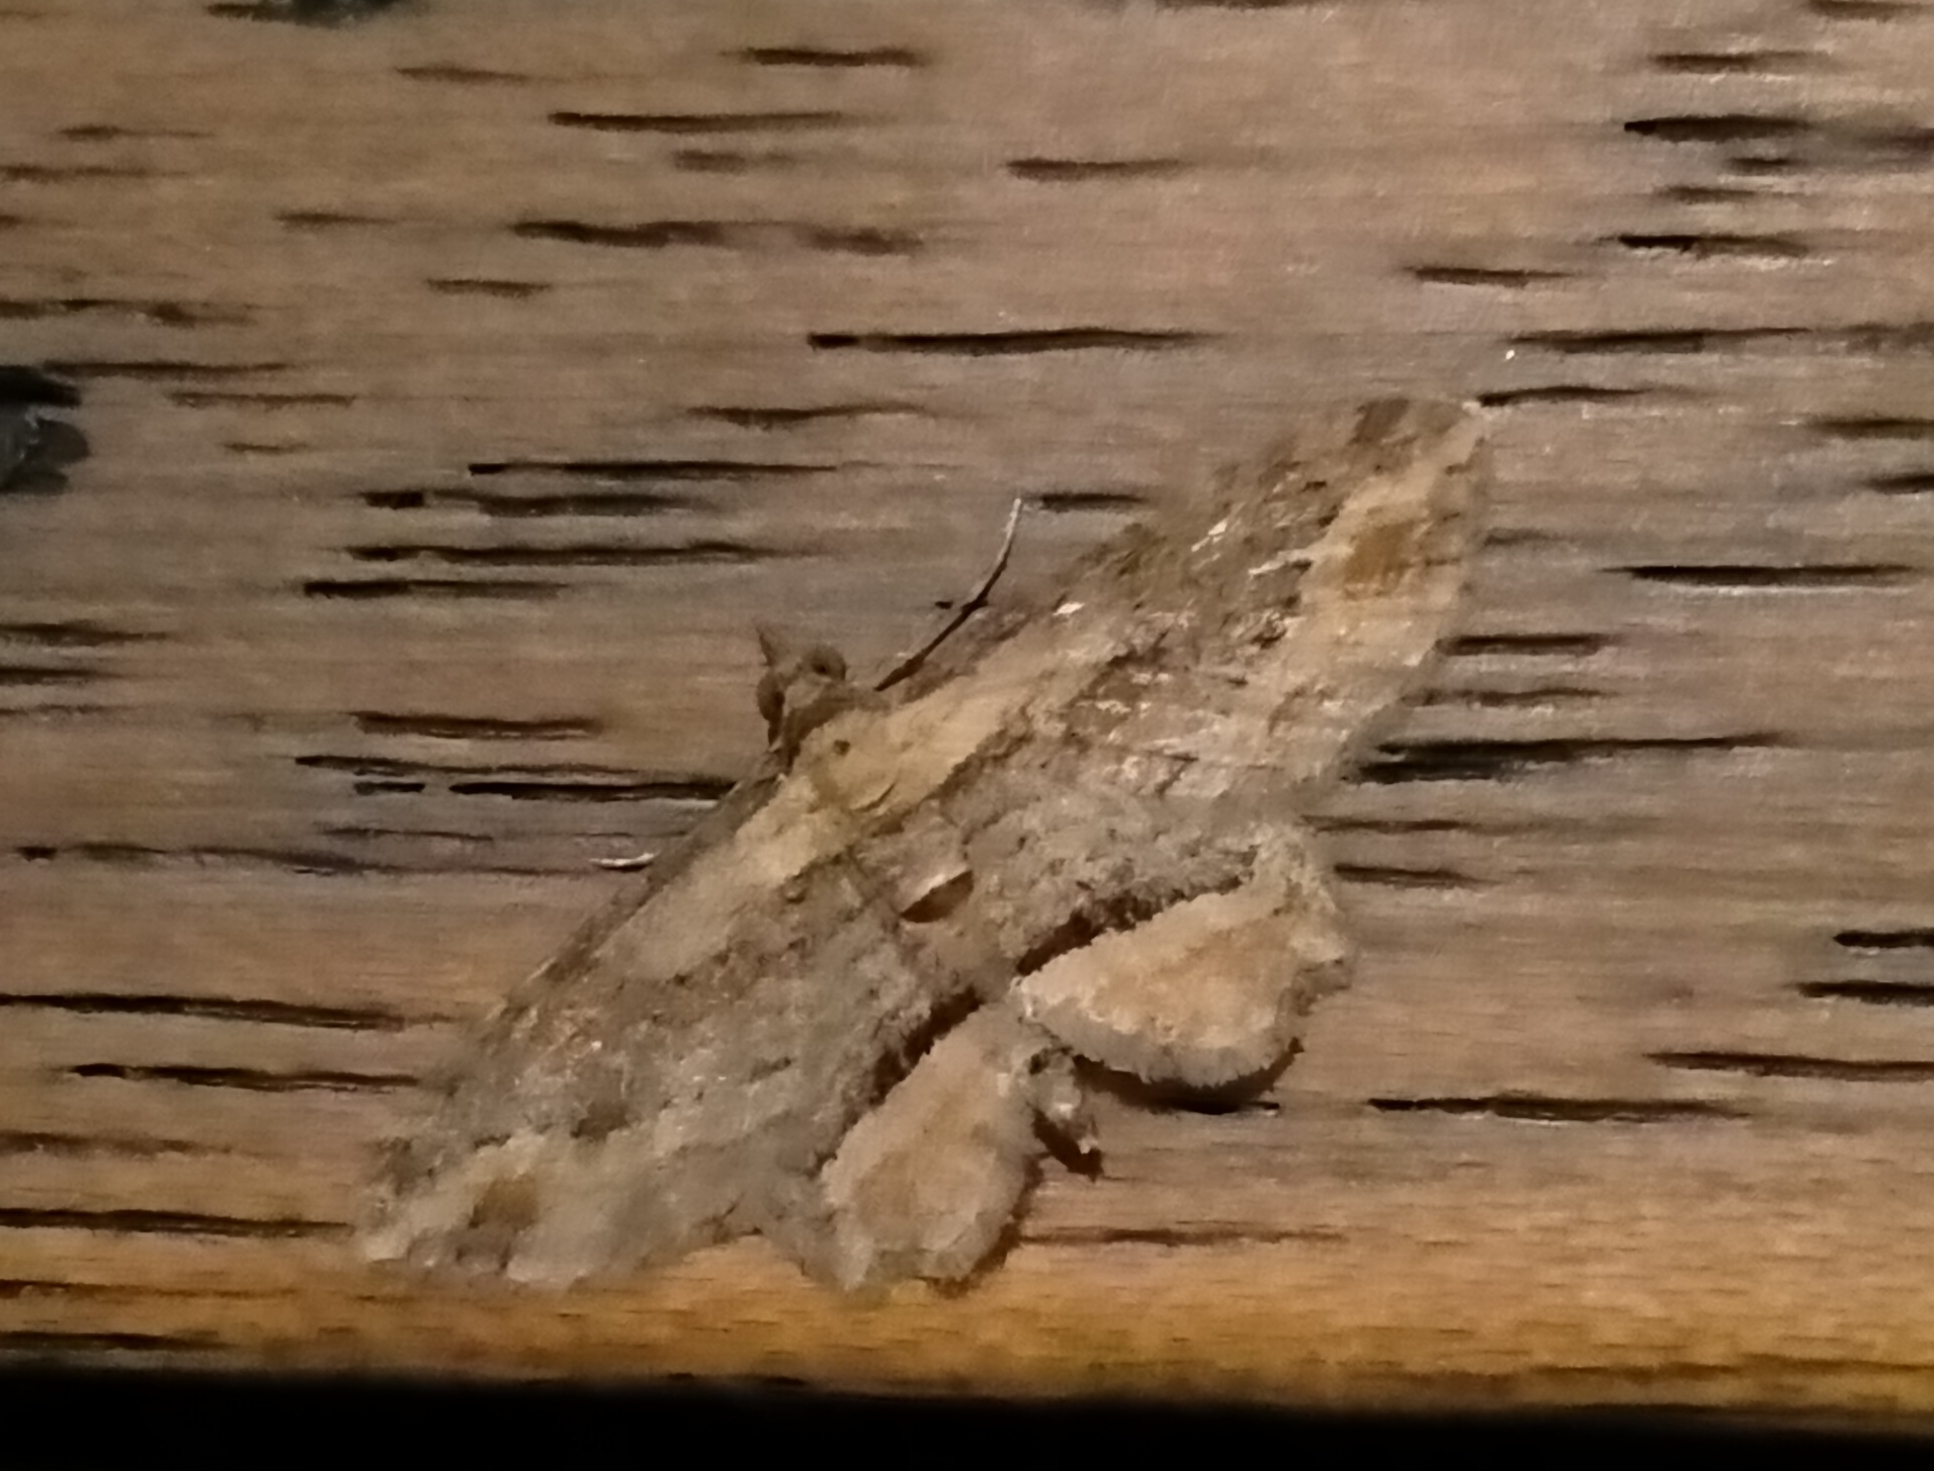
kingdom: Animalia
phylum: Arthropoda
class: Insecta
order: Lepidoptera
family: Geometridae
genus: Chloroclystis
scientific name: Chloroclystis filata
